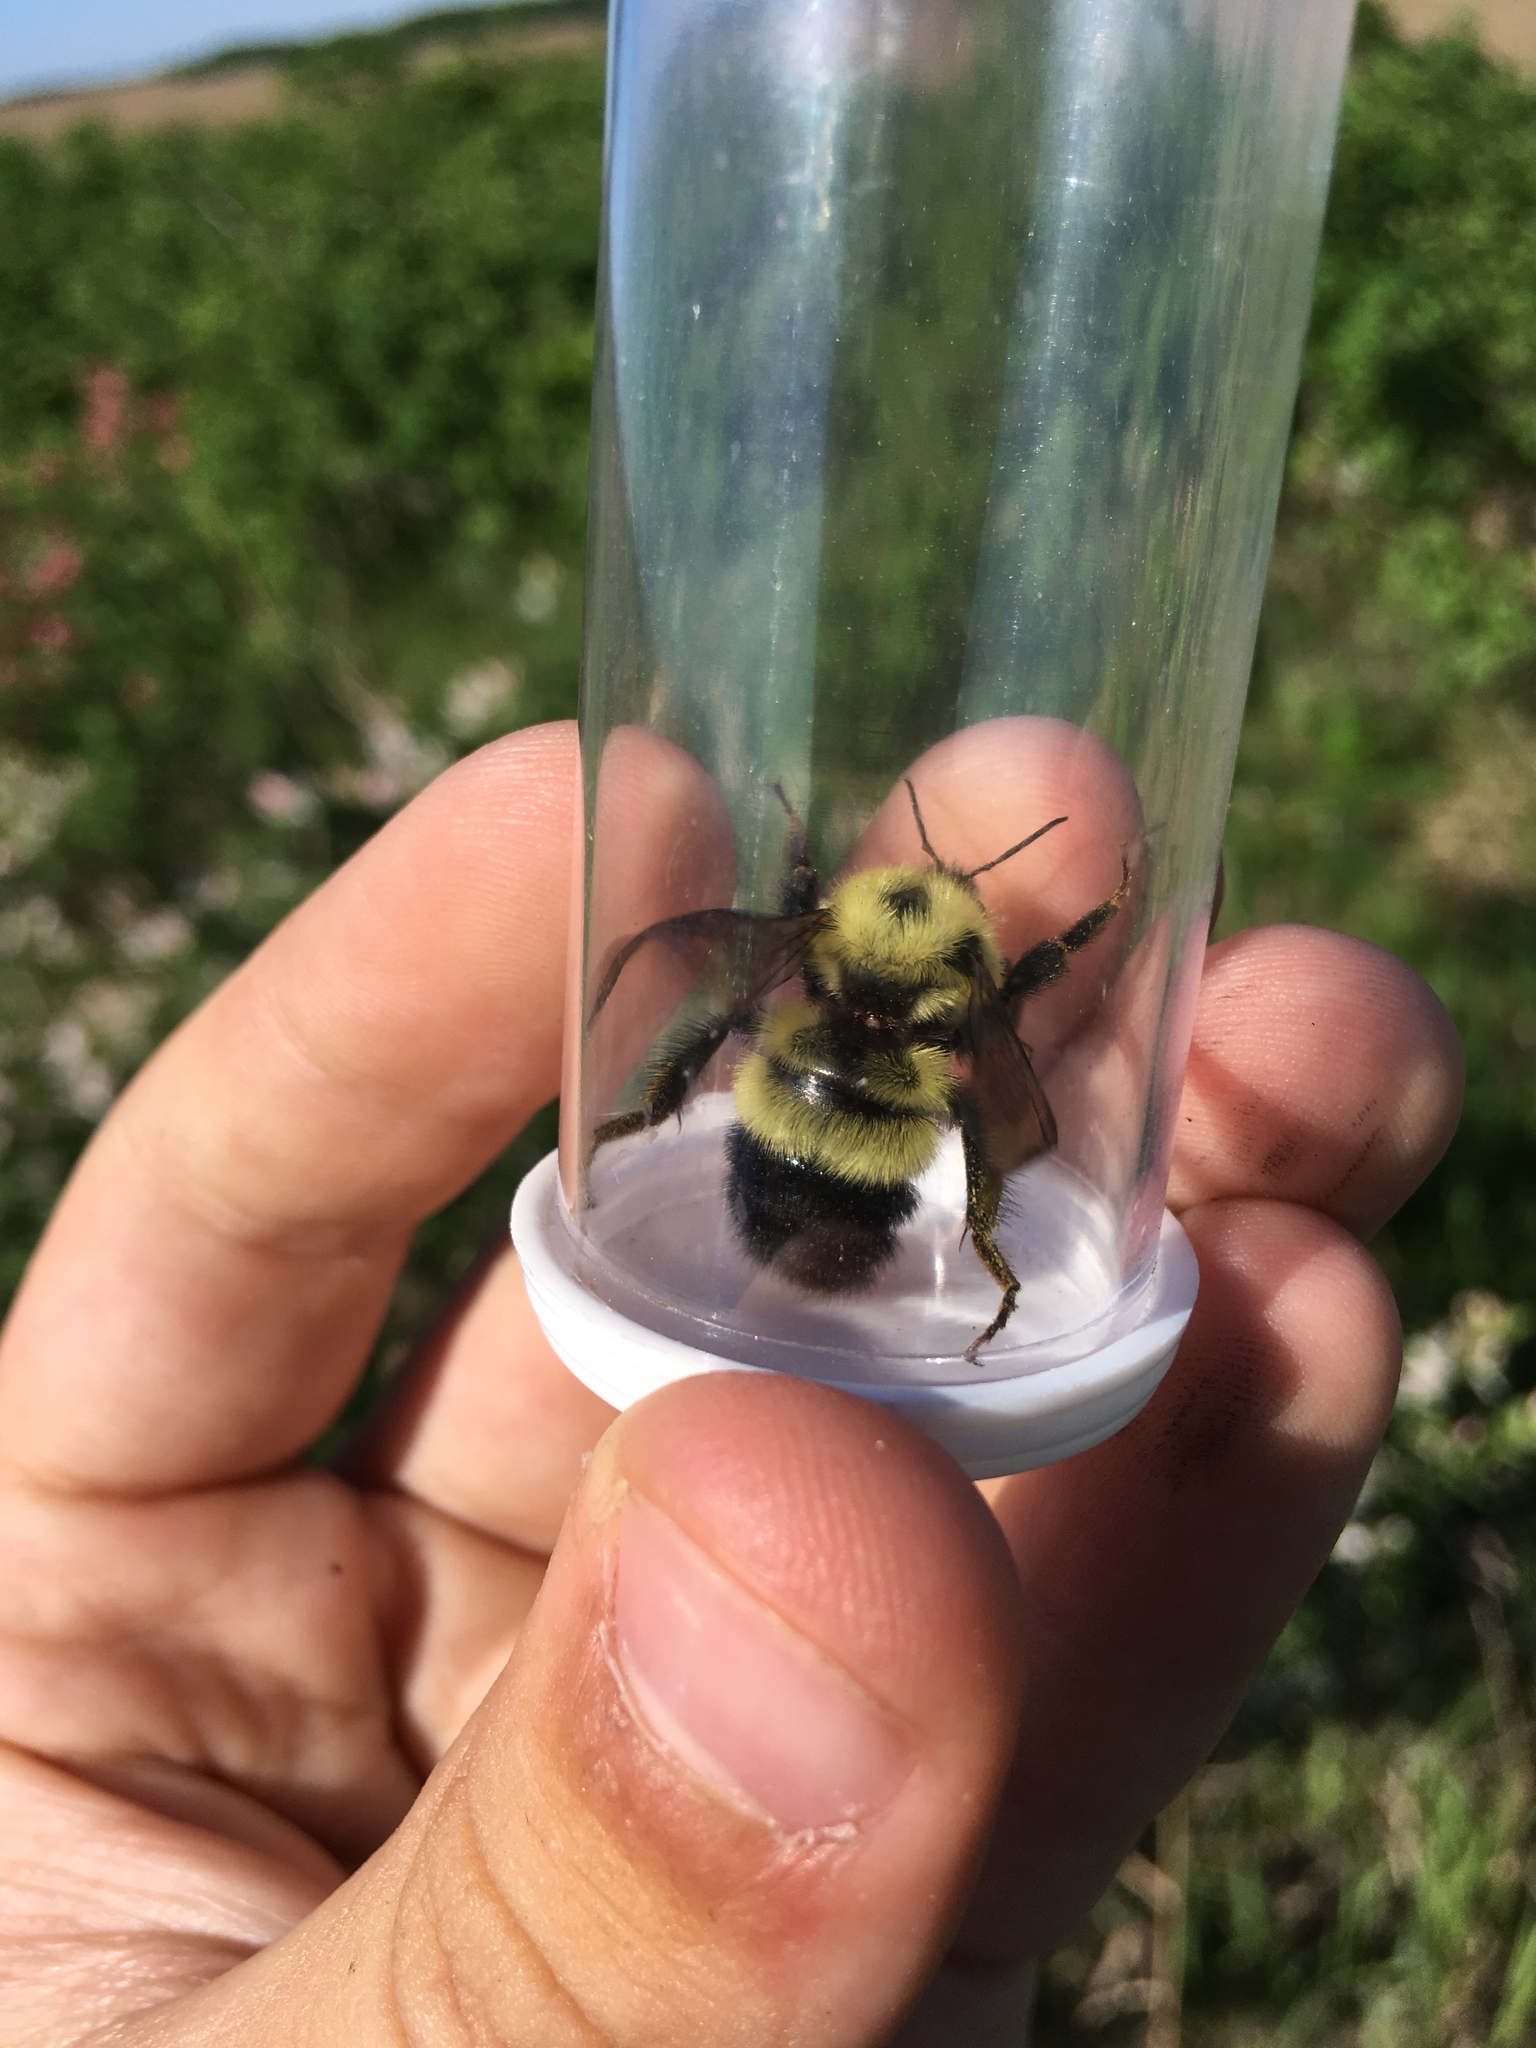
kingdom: Animalia
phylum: Arthropoda
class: Insecta
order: Hymenoptera
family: Apidae
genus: Bombus
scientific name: Bombus vagans
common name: Half-black bumble bee
